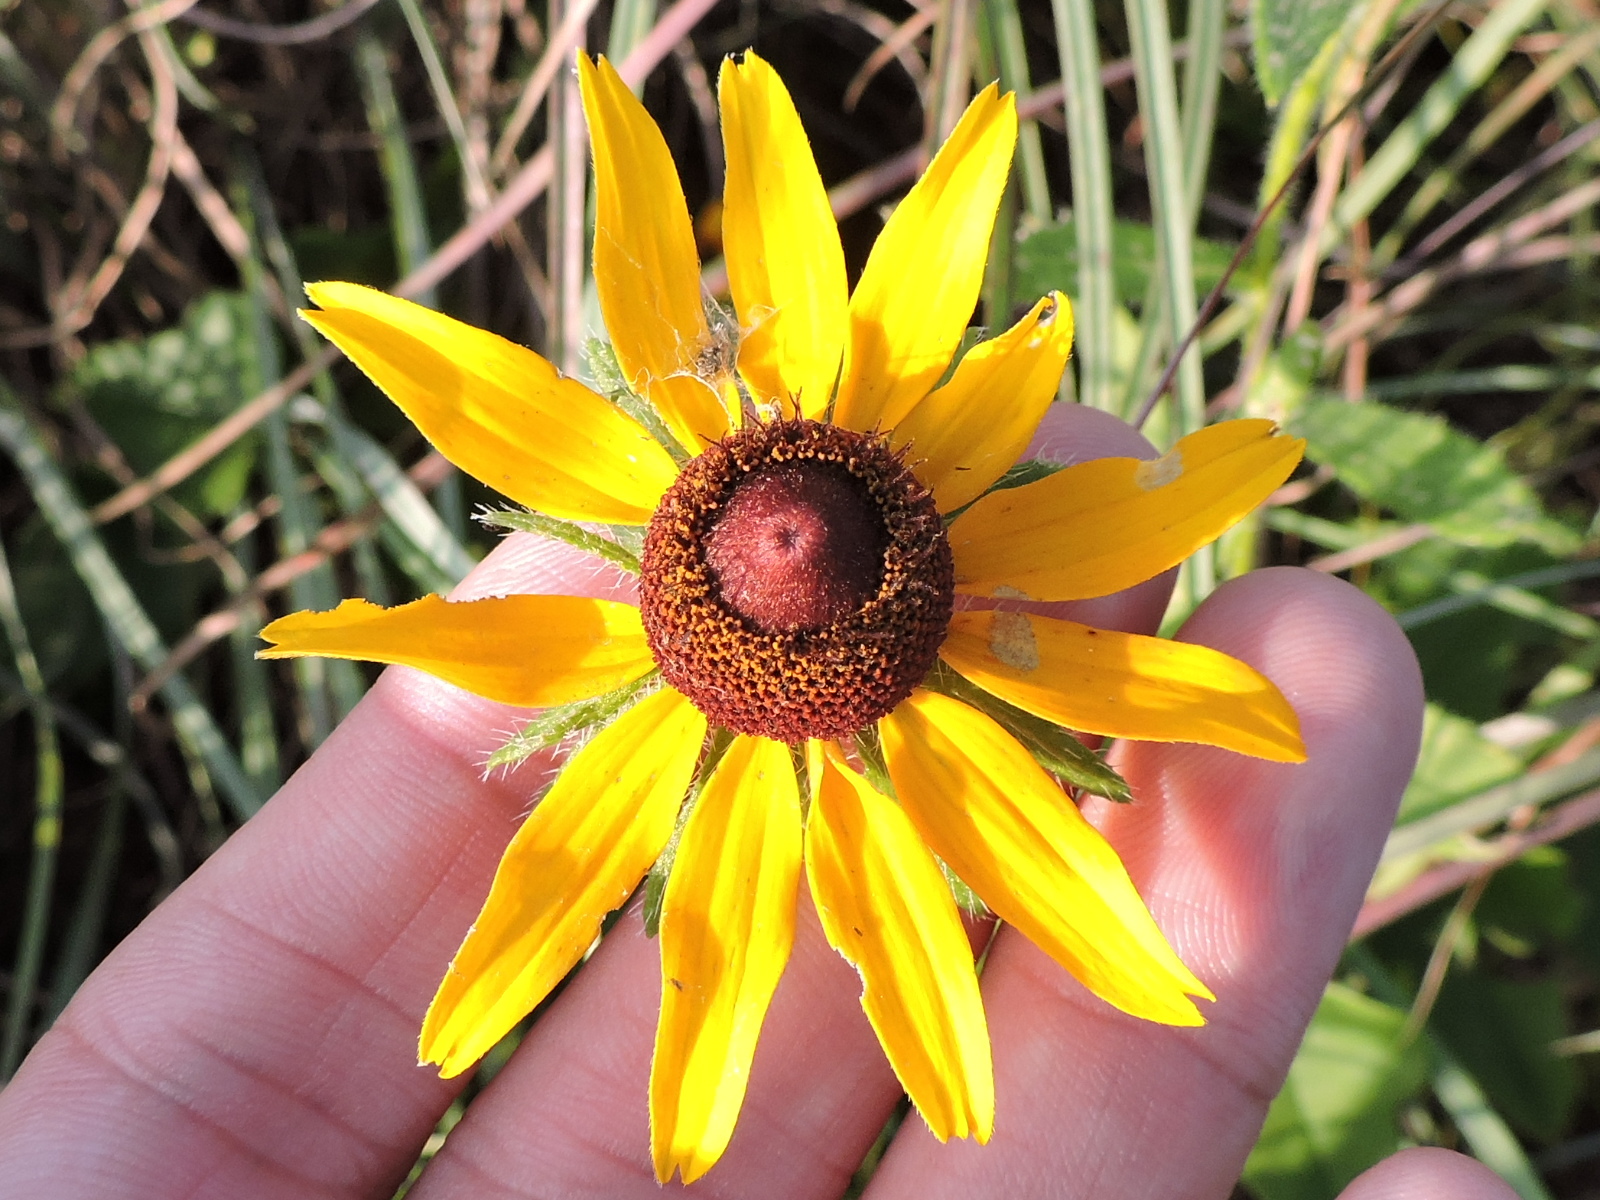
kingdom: Plantae
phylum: Tracheophyta
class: Magnoliopsida
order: Asterales
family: Asteraceae
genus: Rudbeckia
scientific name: Rudbeckia hirta
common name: Black-eyed-susan
